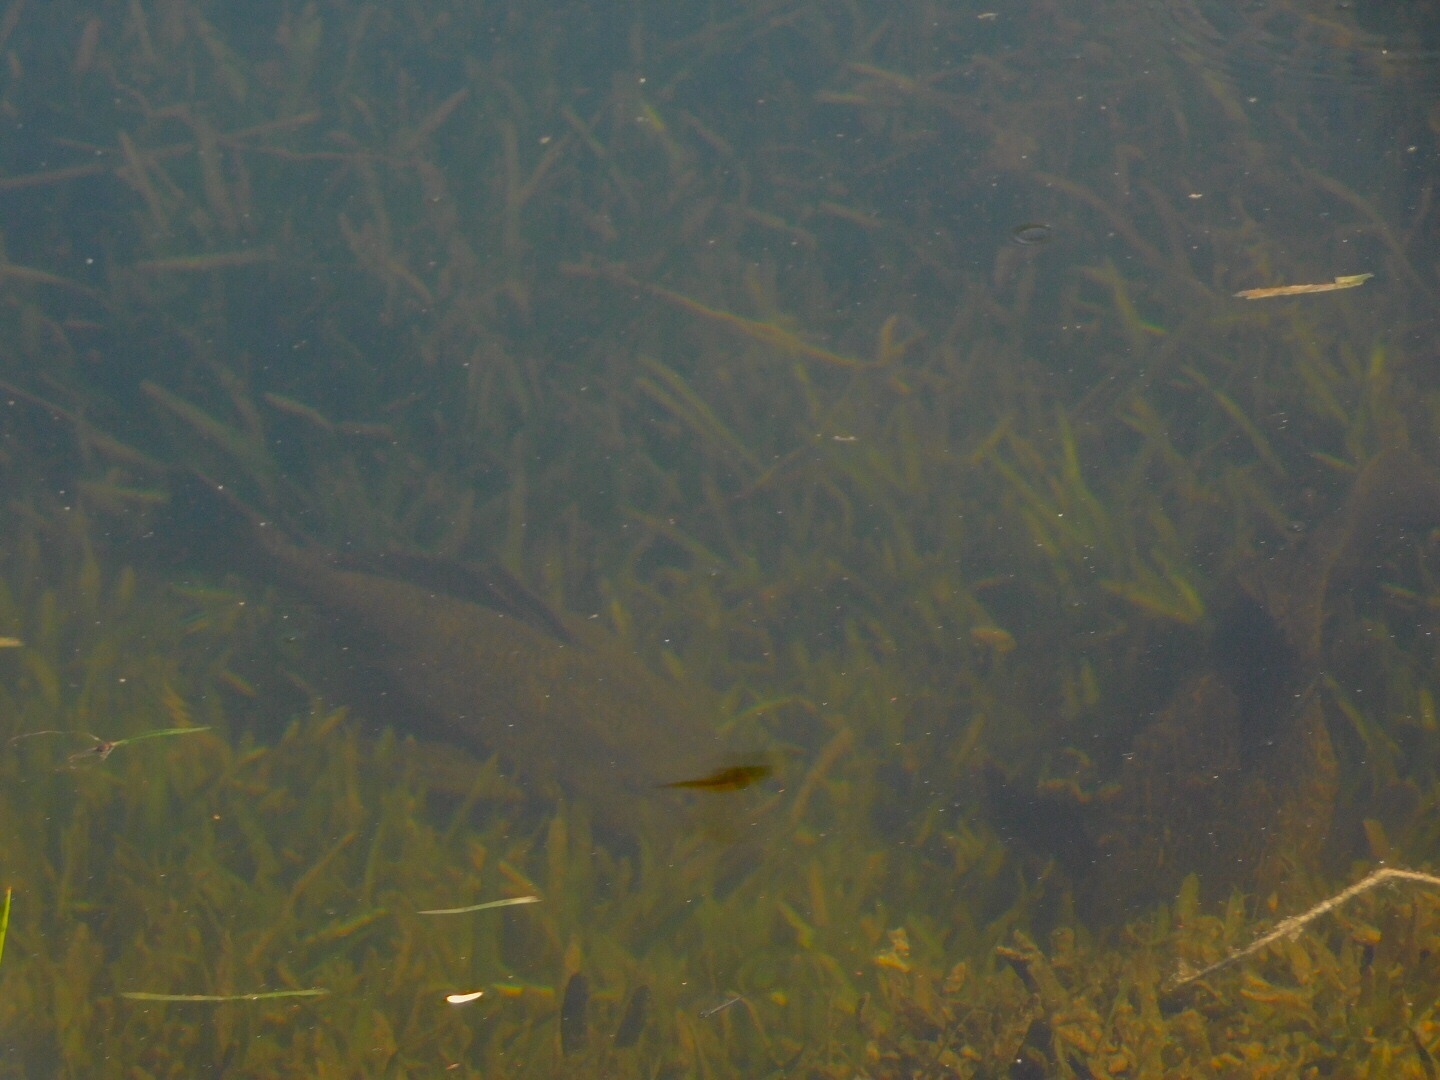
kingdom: Animalia
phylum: Chordata
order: Siluriformes
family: Loricariidae
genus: Pterygoplichthys
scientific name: Pterygoplichthys
